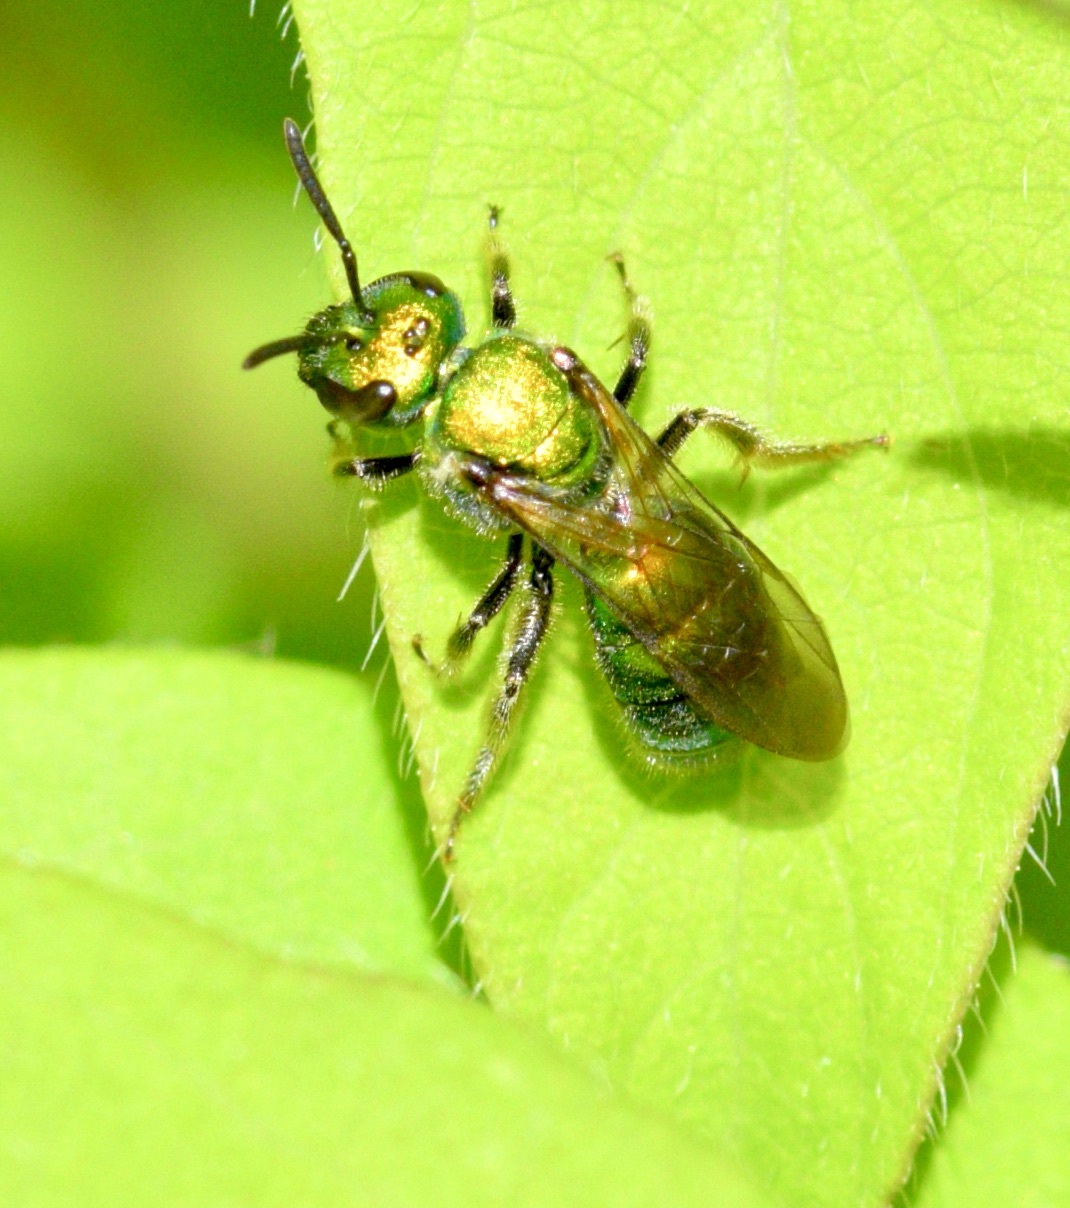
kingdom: Animalia
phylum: Arthropoda
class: Insecta
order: Hymenoptera
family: Halictidae
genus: Augochlora
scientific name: Augochlora pura
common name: Pure green sweat bee
